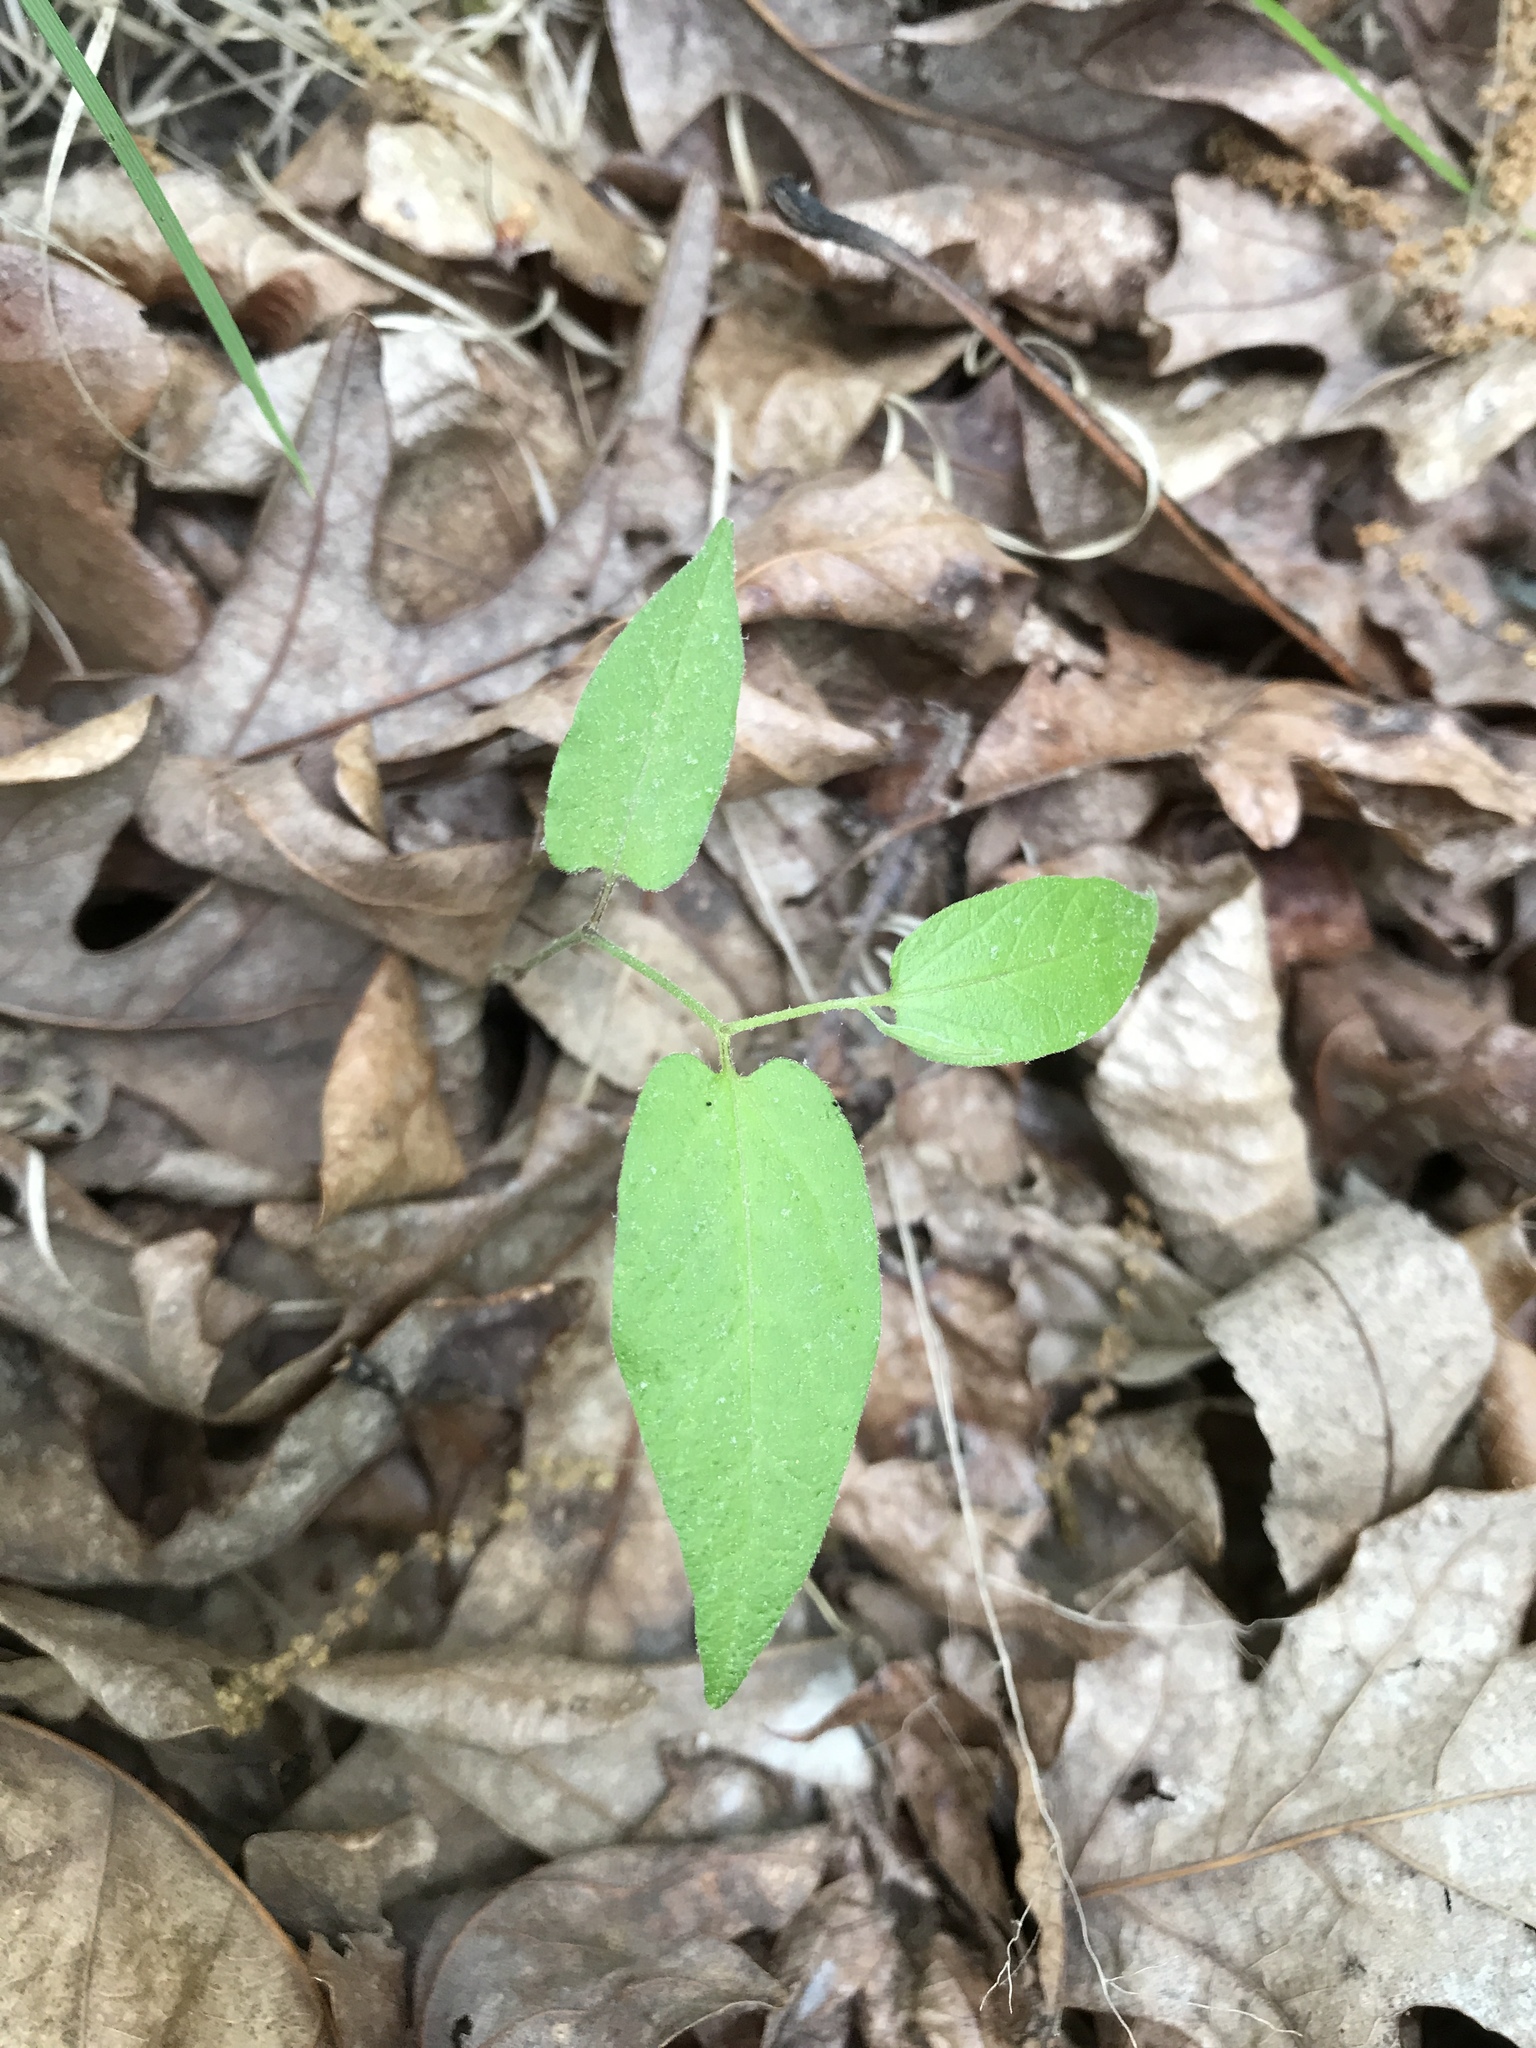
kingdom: Plantae
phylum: Tracheophyta
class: Magnoliopsida
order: Piperales
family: Aristolochiaceae
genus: Endodeca
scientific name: Endodeca serpentaria
